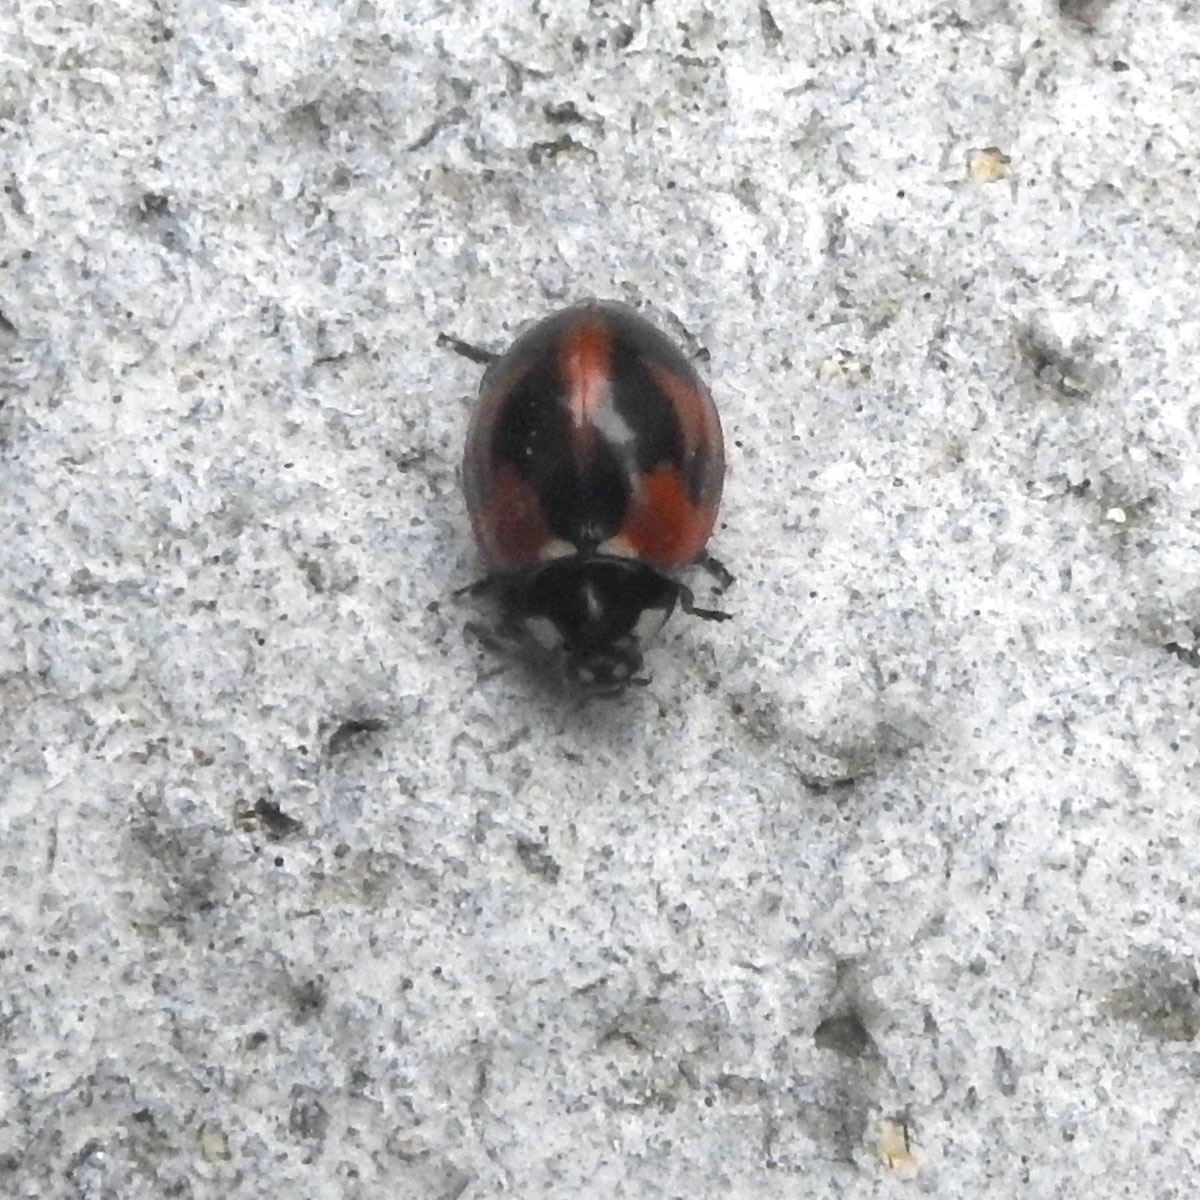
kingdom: Animalia
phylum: Arthropoda
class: Insecta
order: Coleoptera
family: Coccinellidae
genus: Coccinella
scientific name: Coccinella septempunctata
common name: Sevenspotted lady beetle
